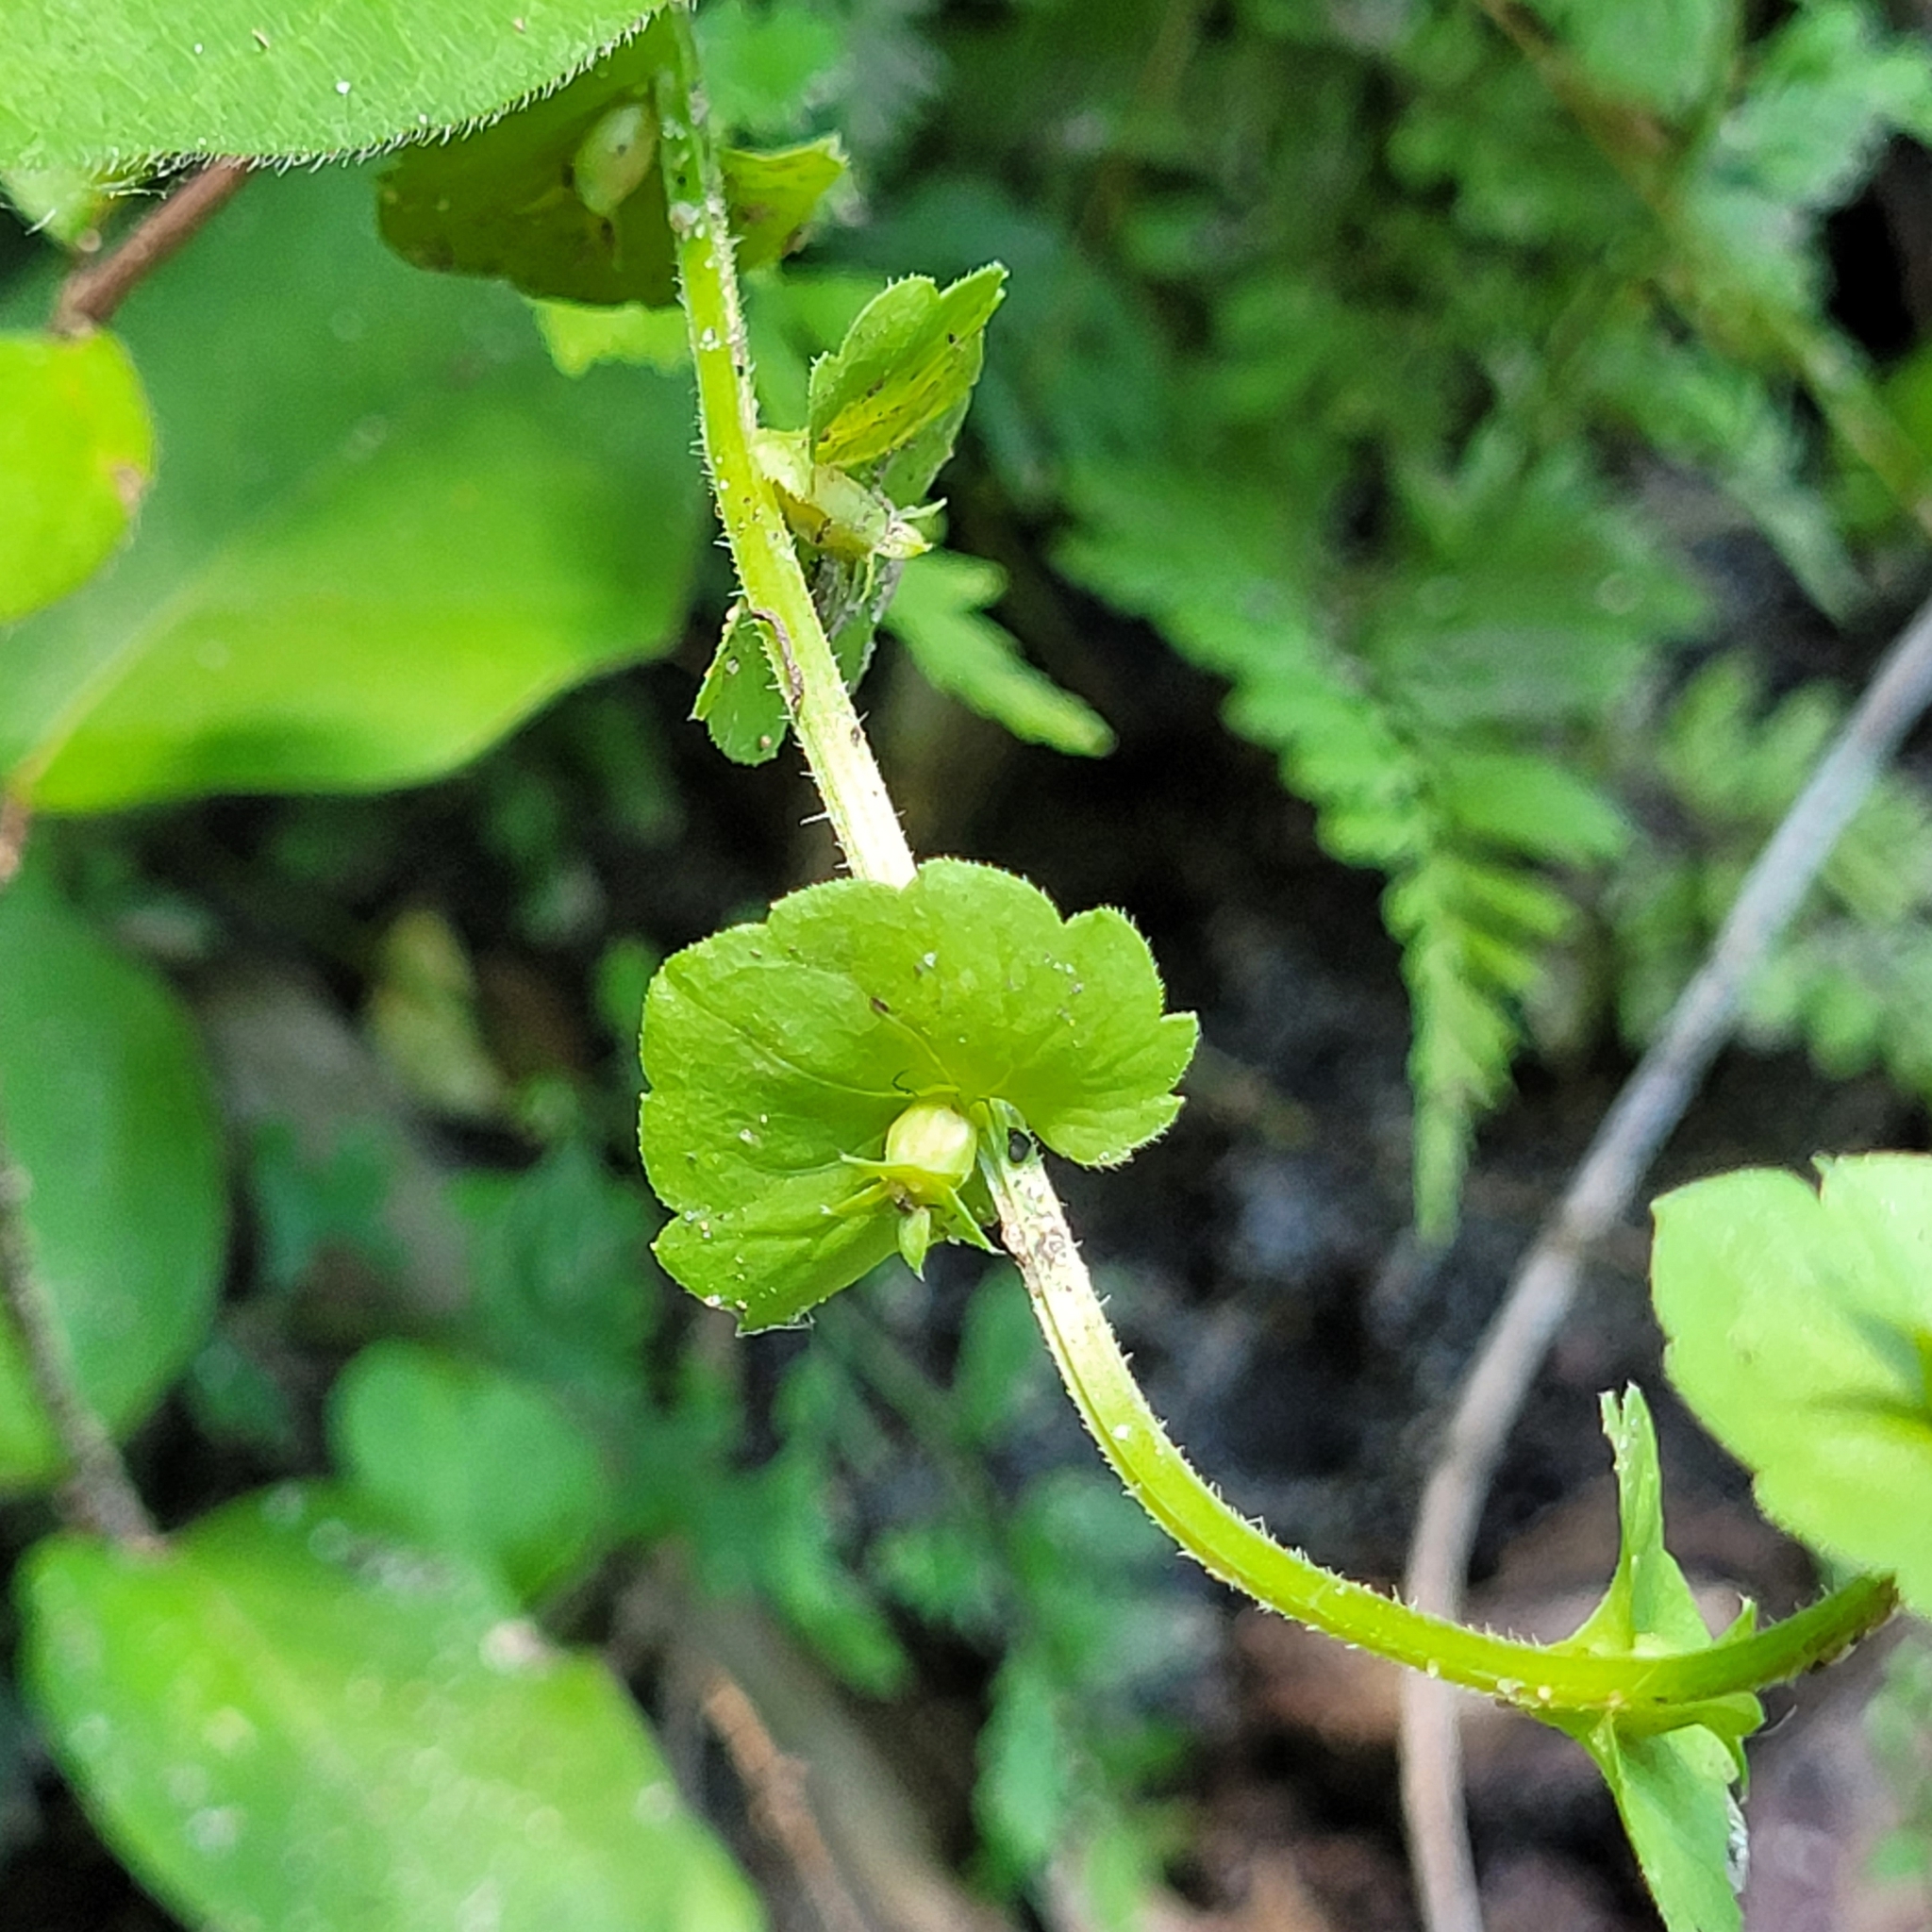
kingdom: Plantae
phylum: Tracheophyta
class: Magnoliopsida
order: Asterales
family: Campanulaceae
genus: Triodanis
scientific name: Triodanis perfoliata
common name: Clasping venus' looking-glass
